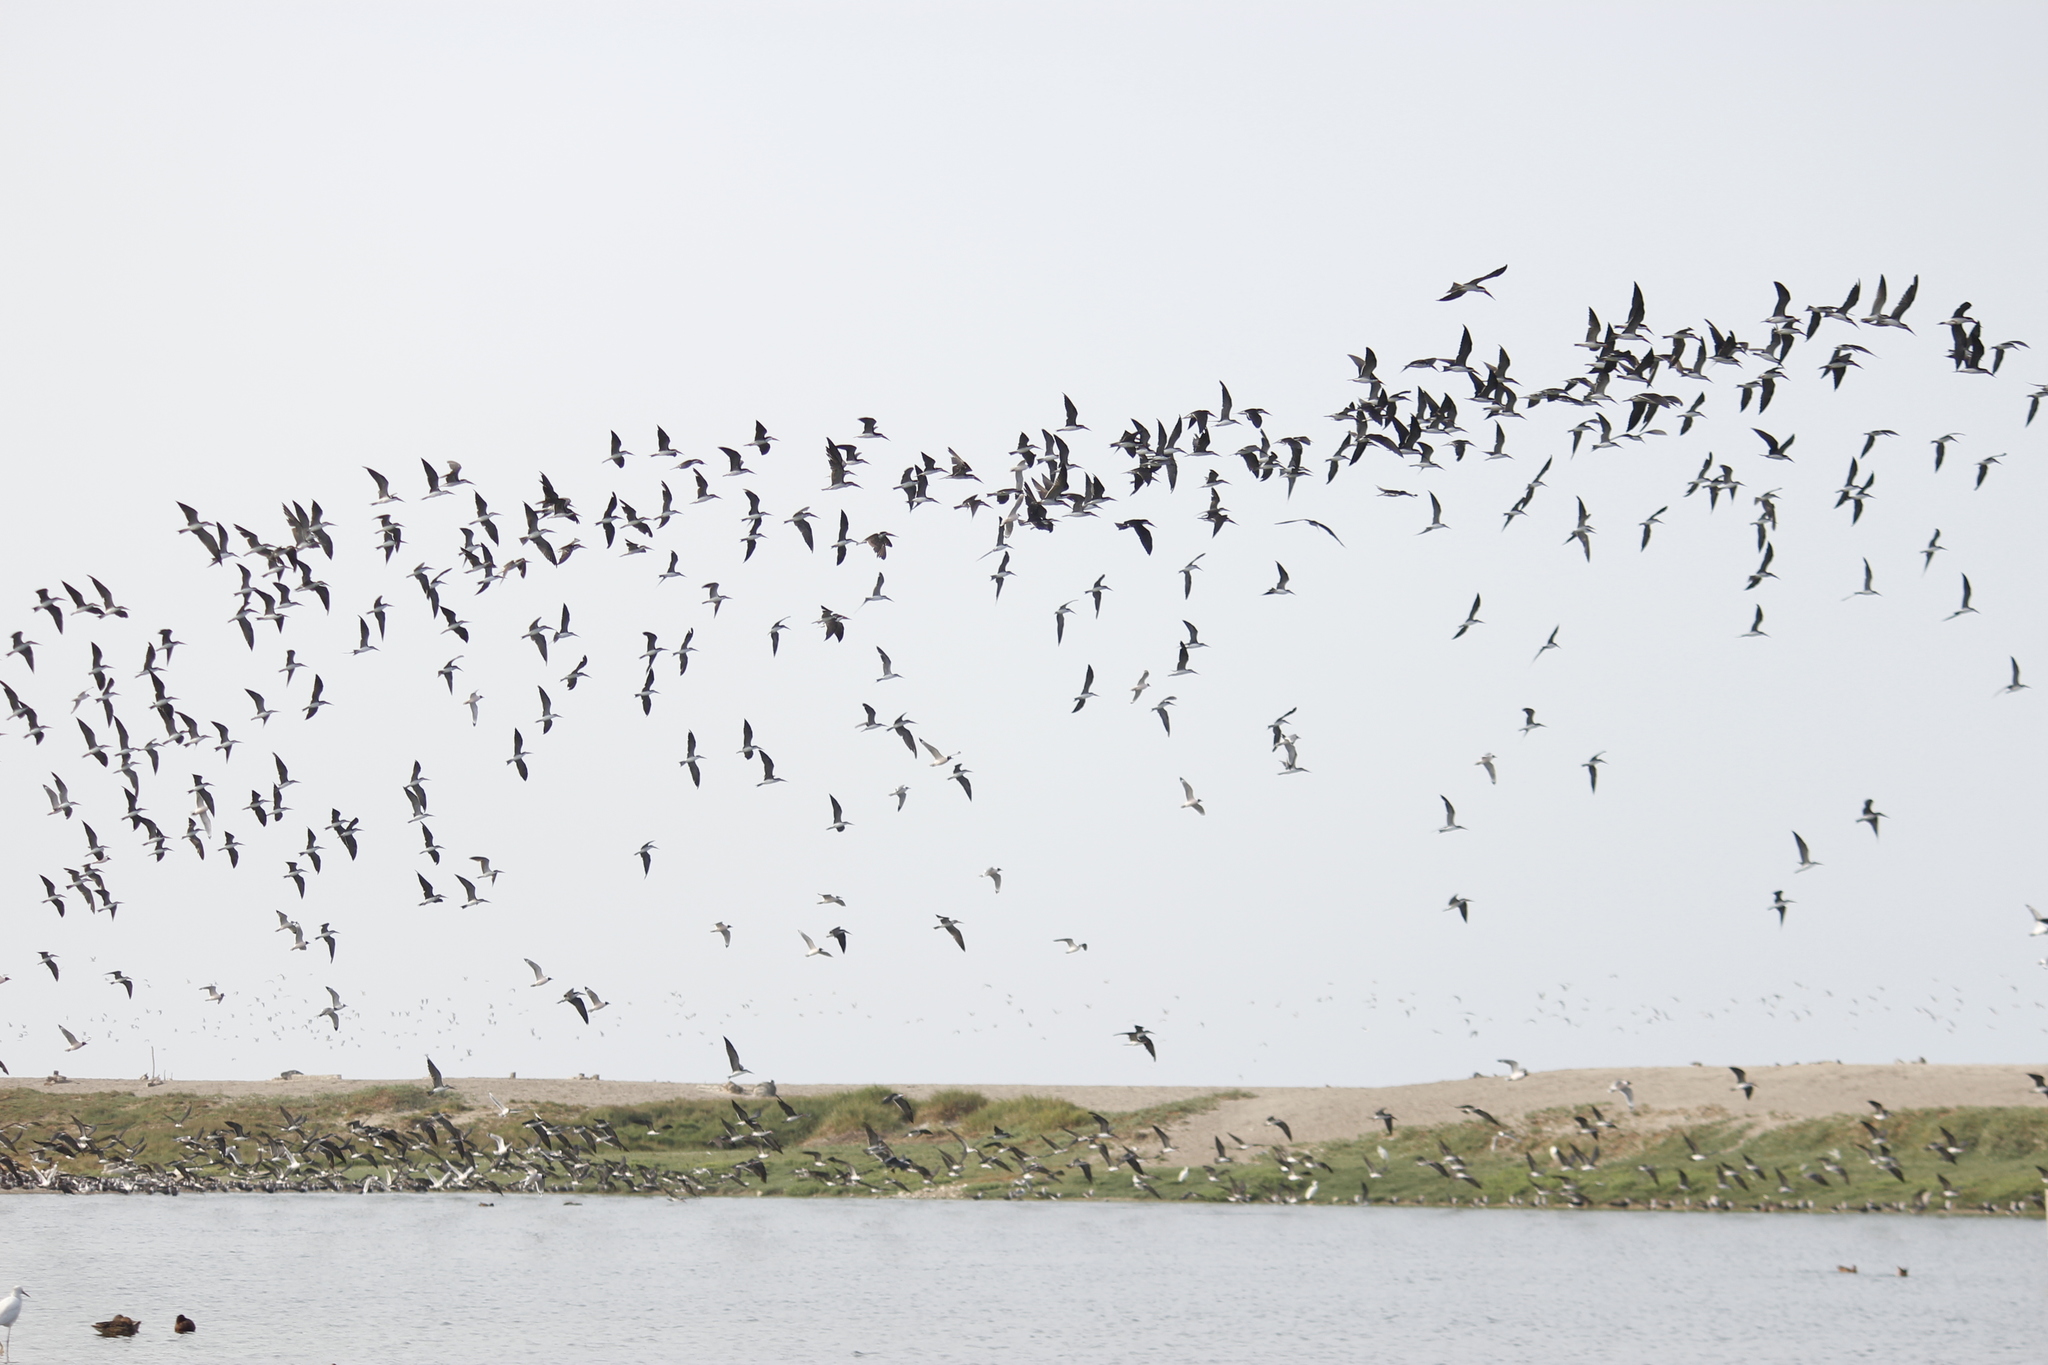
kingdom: Animalia
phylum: Chordata
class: Aves
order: Charadriiformes
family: Laridae
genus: Rynchops
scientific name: Rynchops niger
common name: Black skimmer
